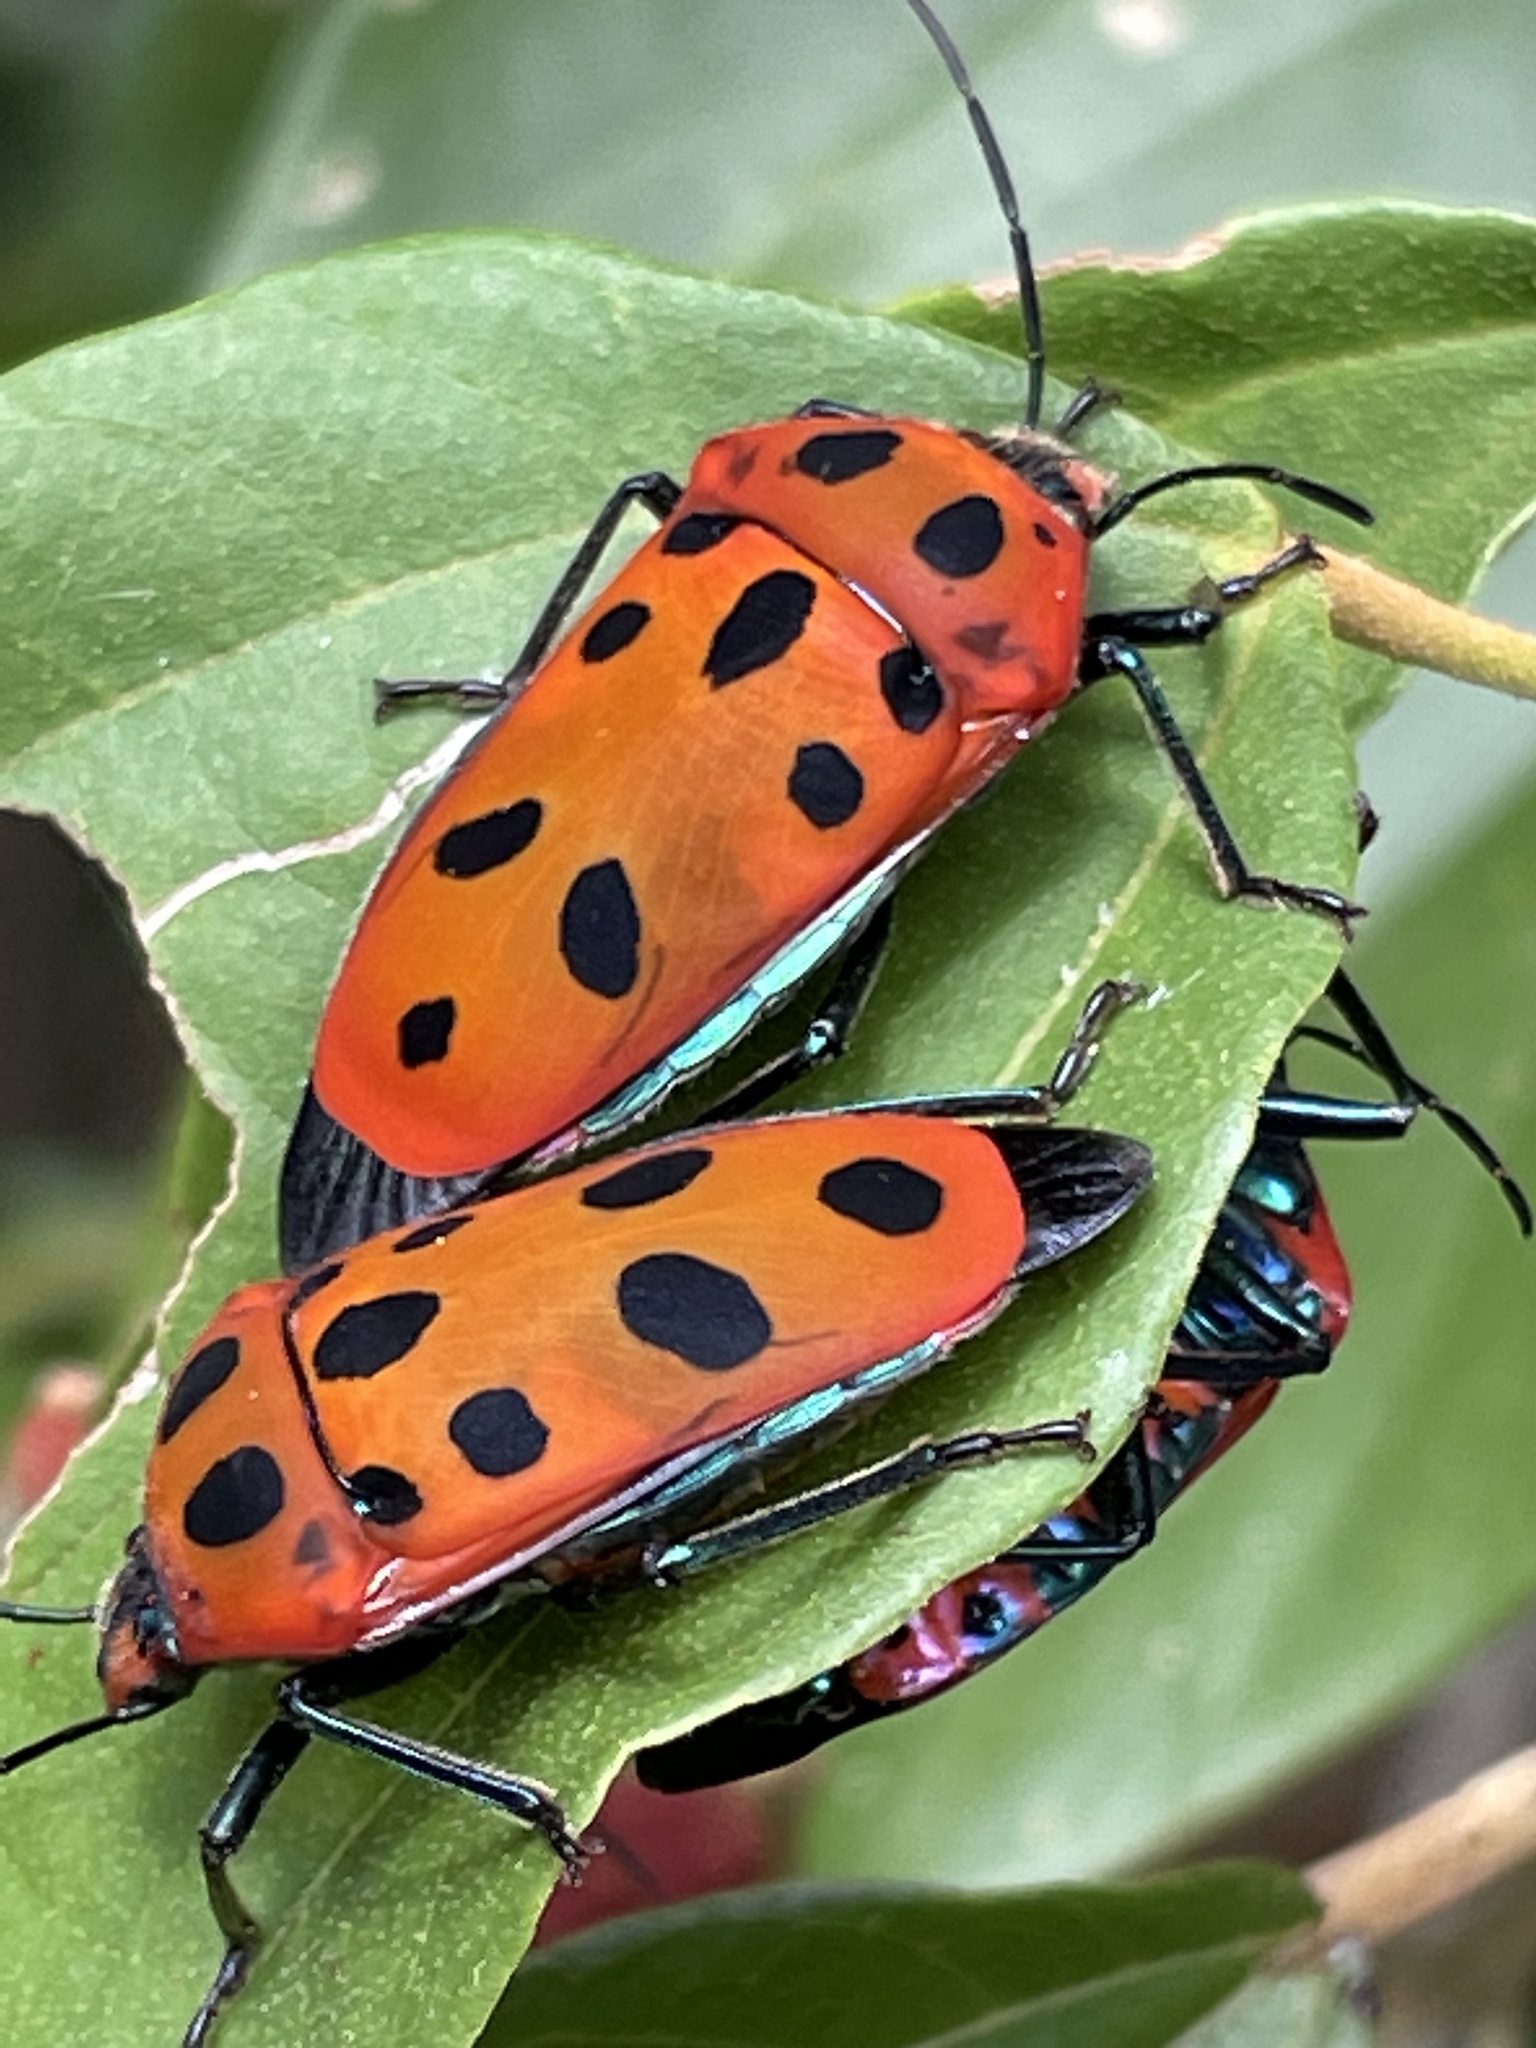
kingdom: Animalia
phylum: Arthropoda
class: Insecta
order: Hemiptera
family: Scutelleridae
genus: Cantao
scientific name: Cantao
